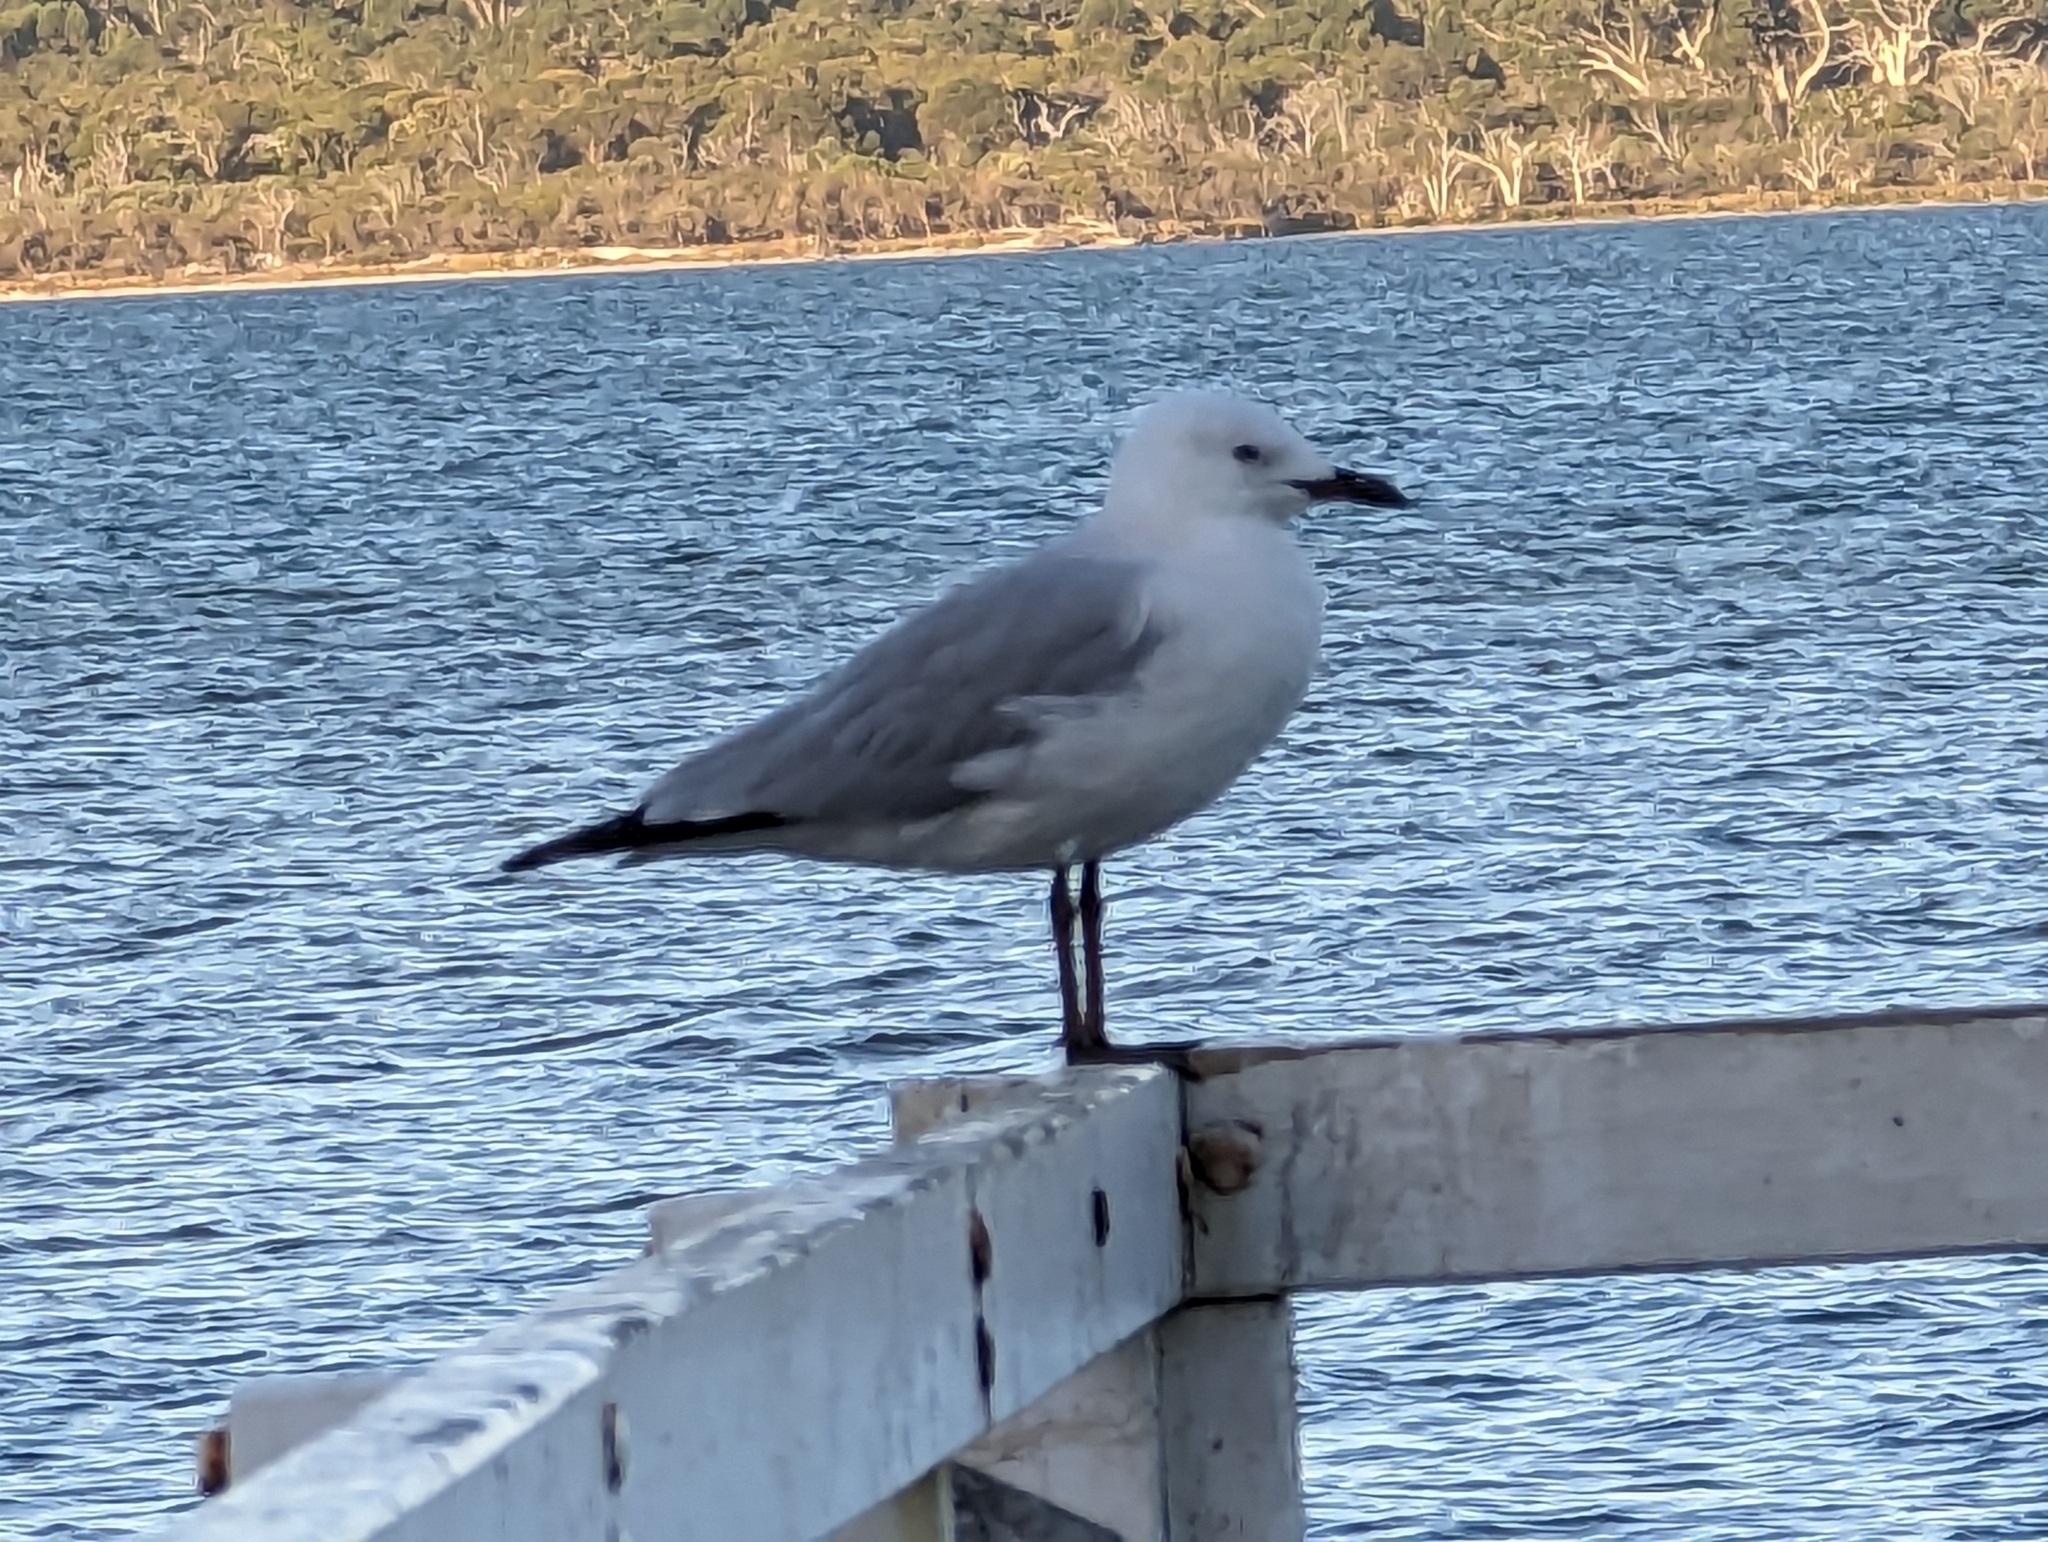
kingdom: Animalia
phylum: Chordata
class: Aves
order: Charadriiformes
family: Laridae
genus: Chroicocephalus
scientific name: Chroicocephalus novaehollandiae
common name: Silver gull
